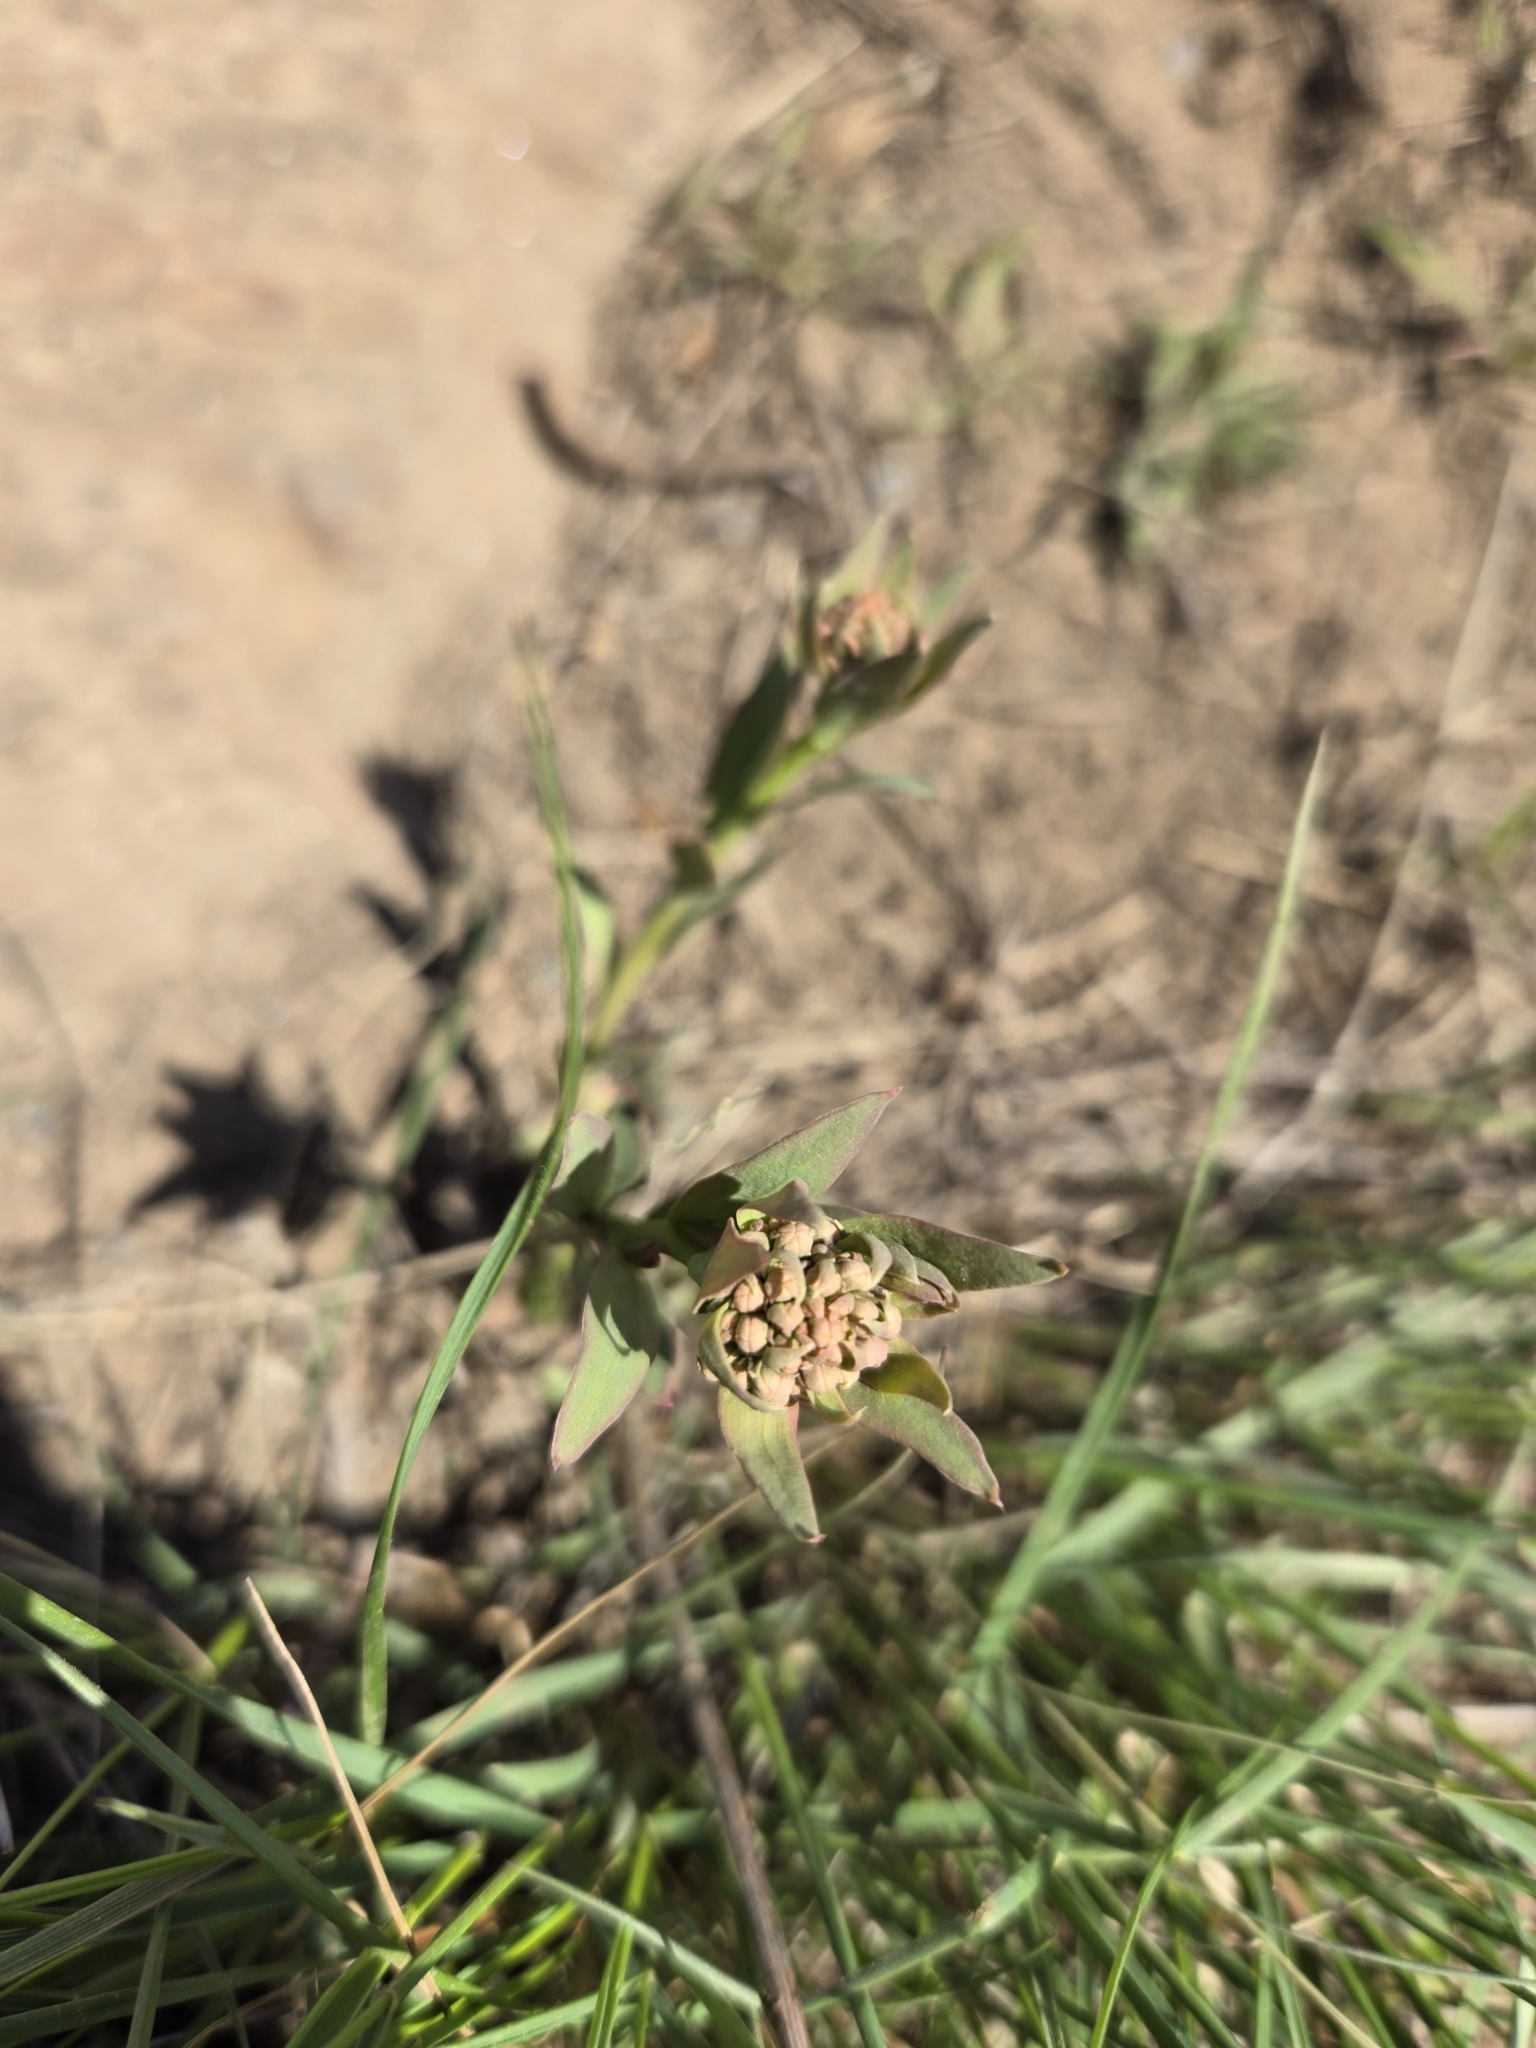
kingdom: Plantae
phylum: Tracheophyta
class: Magnoliopsida
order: Santalales
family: Comandraceae
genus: Comandra
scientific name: Comandra umbellata
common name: Bastard toadflax
